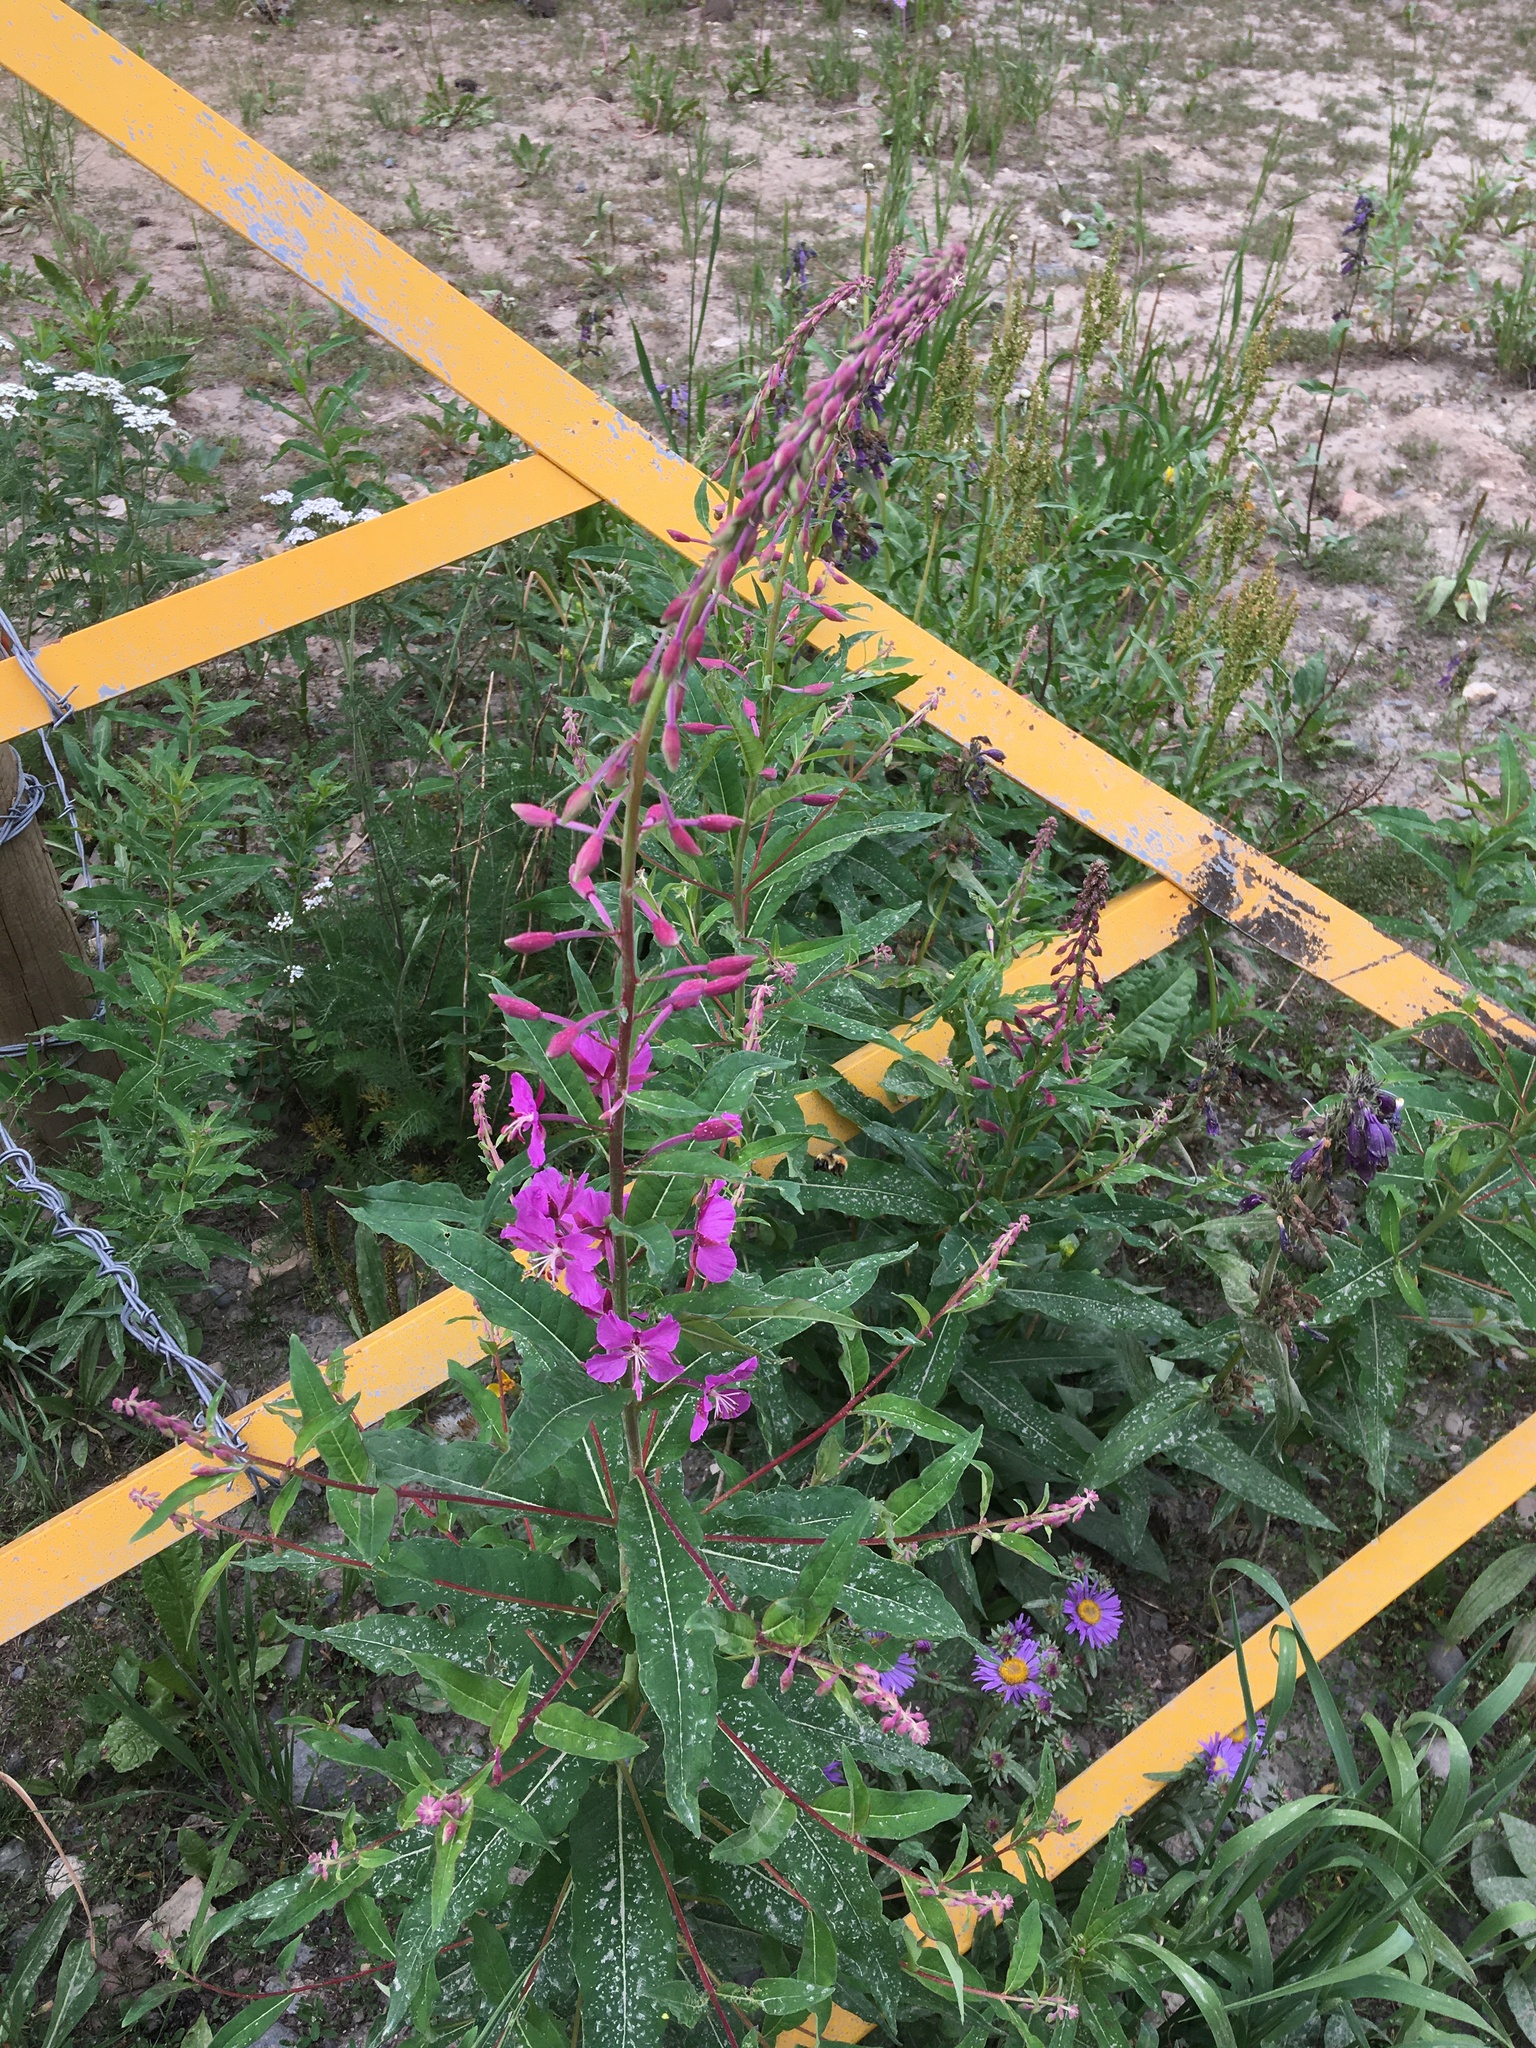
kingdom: Plantae
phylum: Tracheophyta
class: Magnoliopsida
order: Myrtales
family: Onagraceae
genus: Chamaenerion
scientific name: Chamaenerion angustifolium
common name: Fireweed
